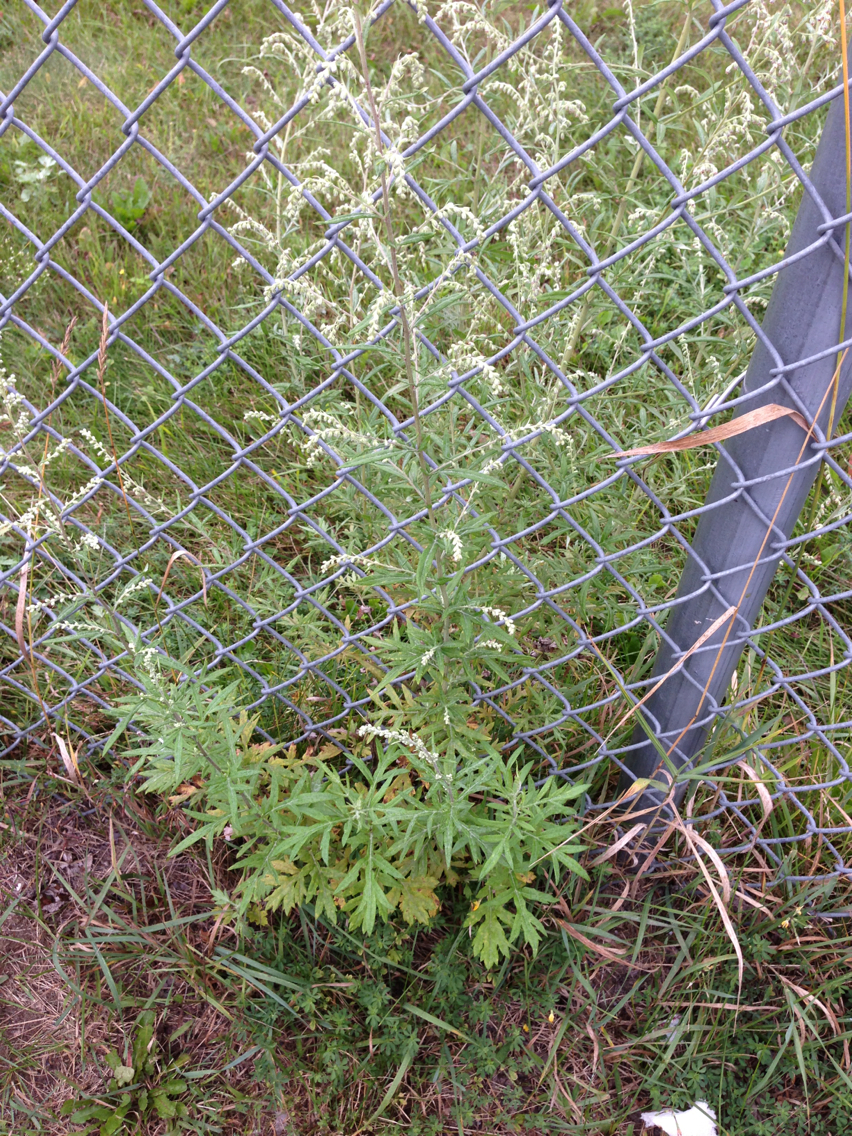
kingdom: Plantae
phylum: Tracheophyta
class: Magnoliopsida
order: Asterales
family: Asteraceae
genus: Artemisia
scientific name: Artemisia vulgaris
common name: Mugwort
